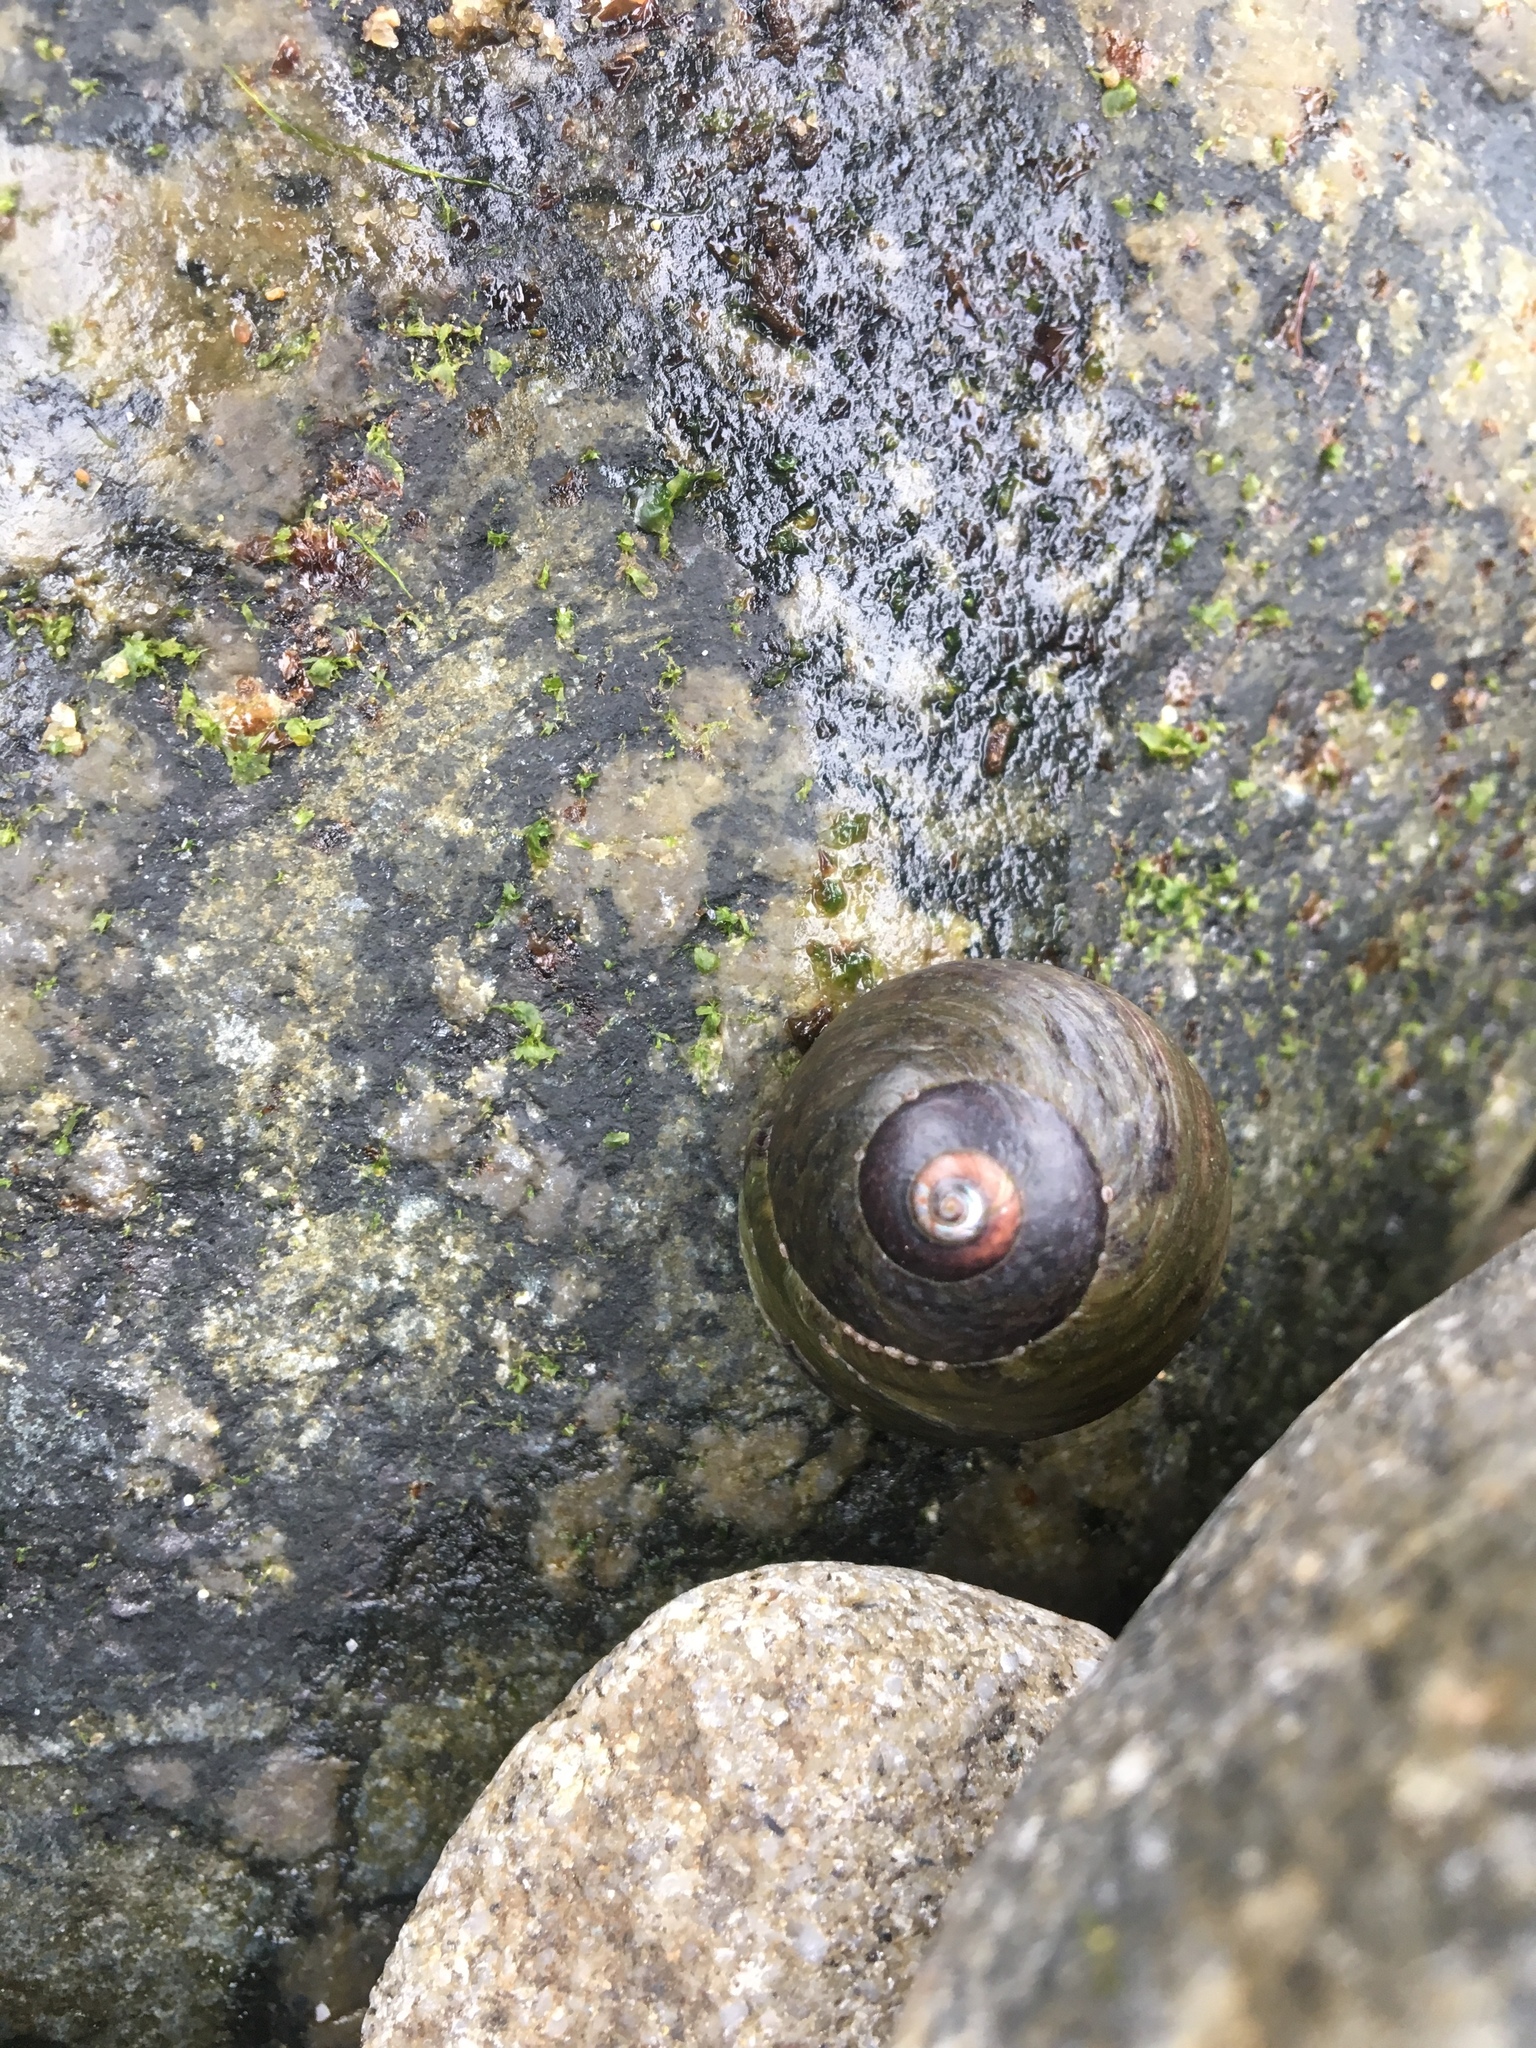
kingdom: Animalia
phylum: Mollusca
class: Gastropoda
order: Trochida
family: Tegulidae
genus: Tegula
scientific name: Tegula funebralis
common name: Black tegula
